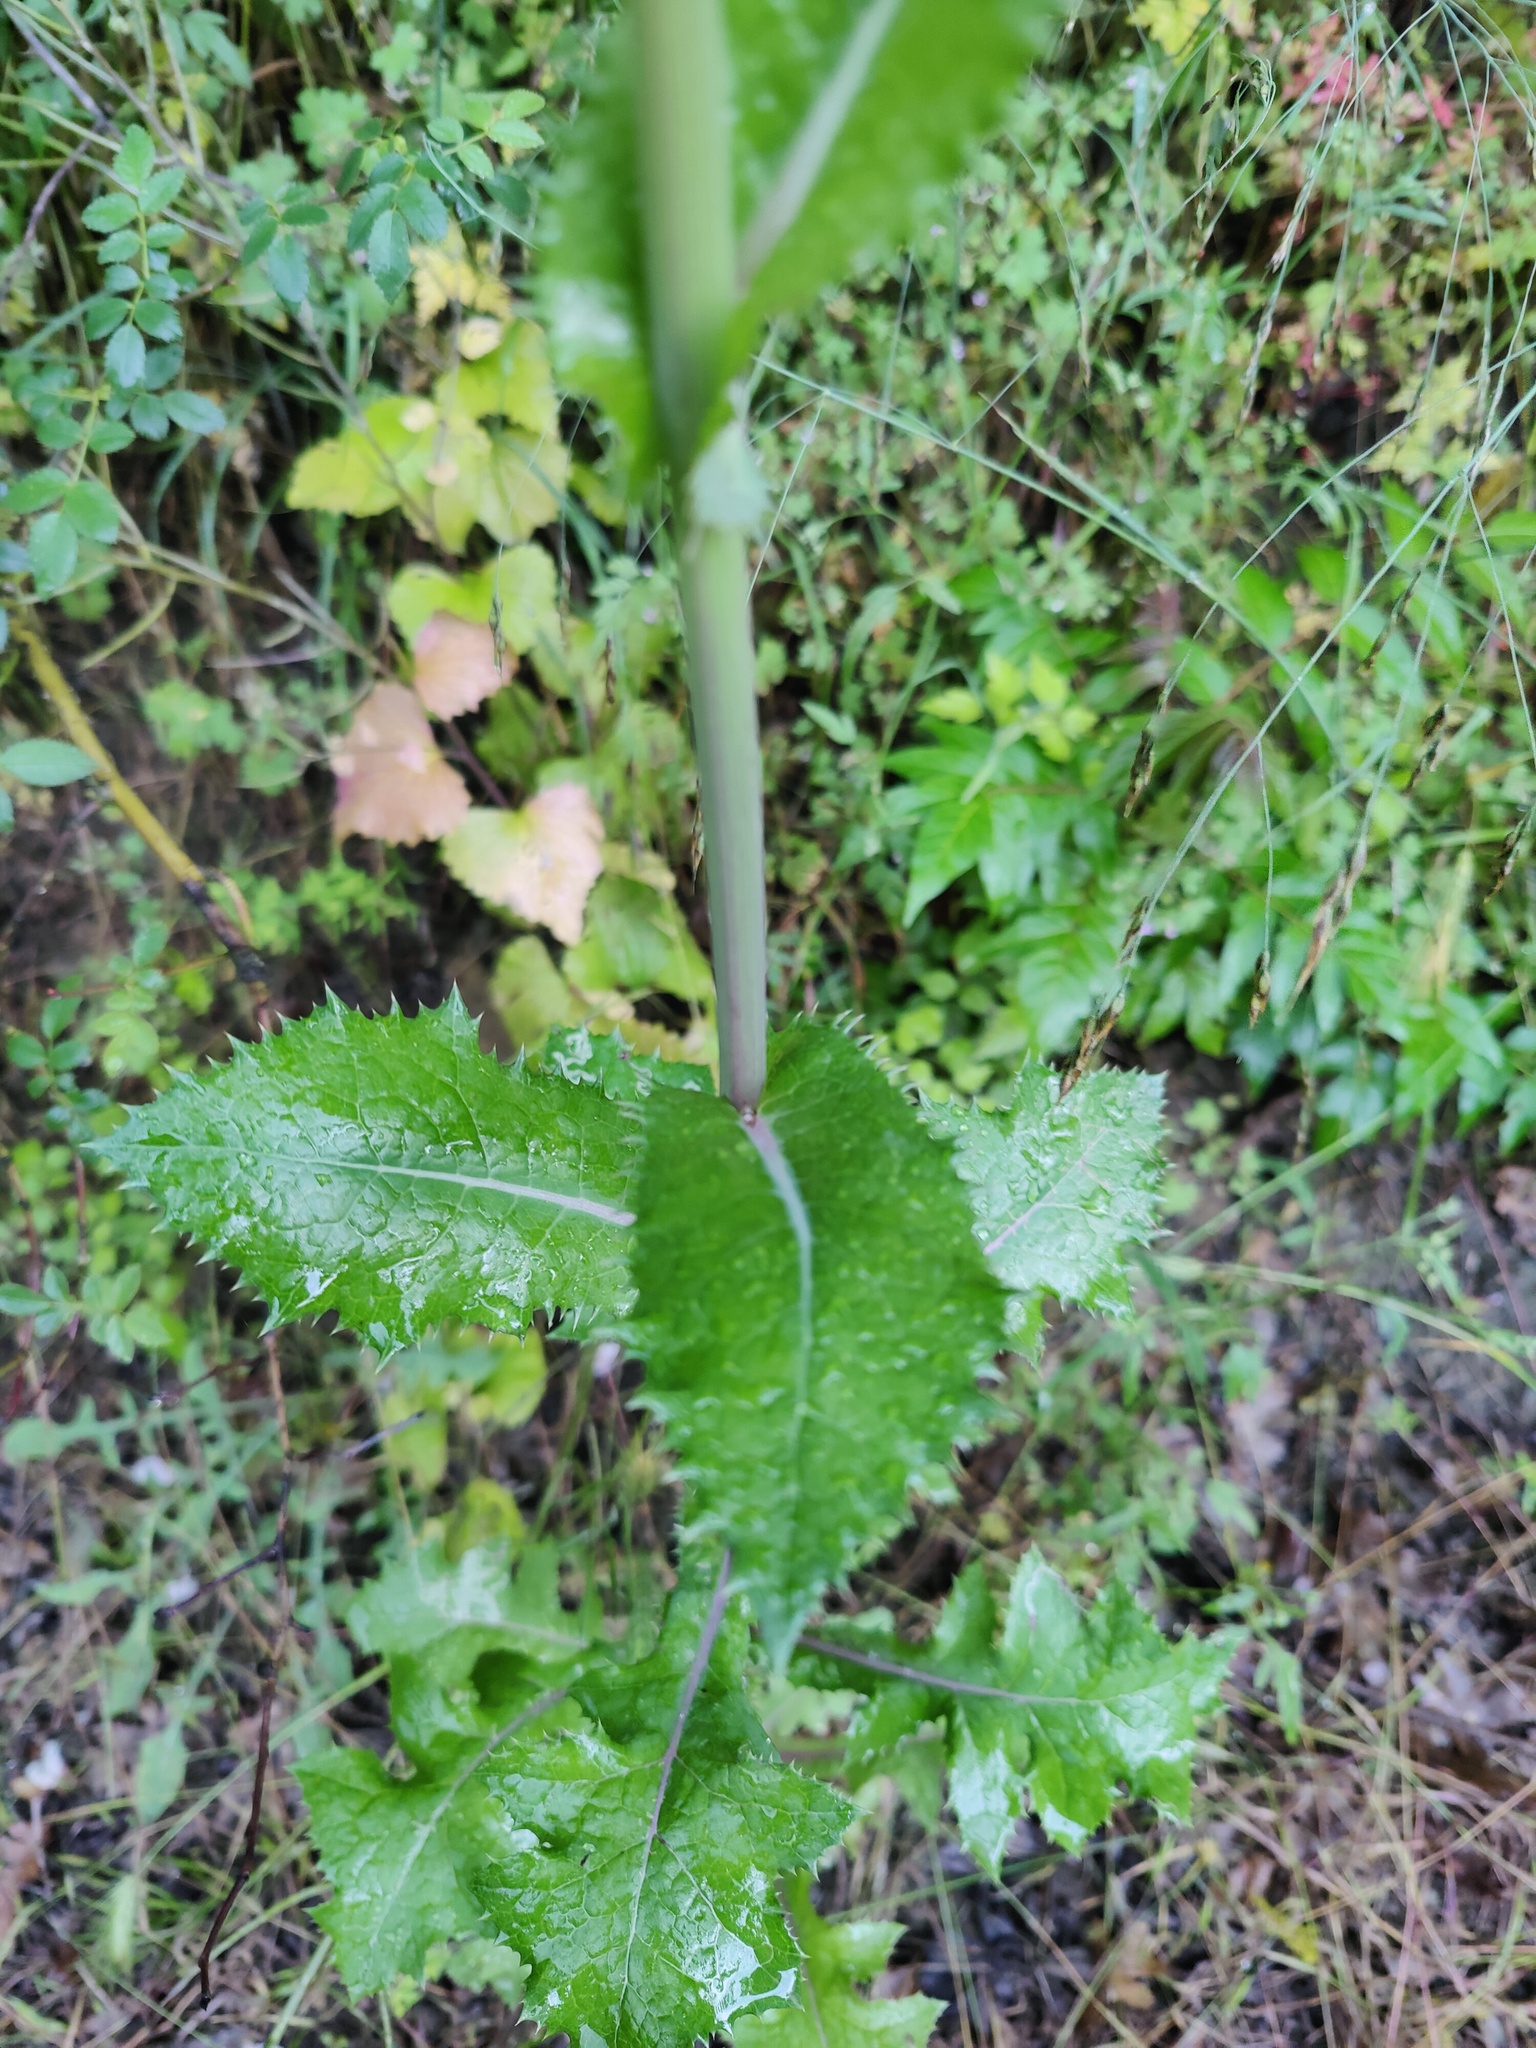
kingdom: Plantae
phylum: Tracheophyta
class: Magnoliopsida
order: Asterales
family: Asteraceae
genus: Sonchus
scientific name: Sonchus asper
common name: Prickly sow-thistle
